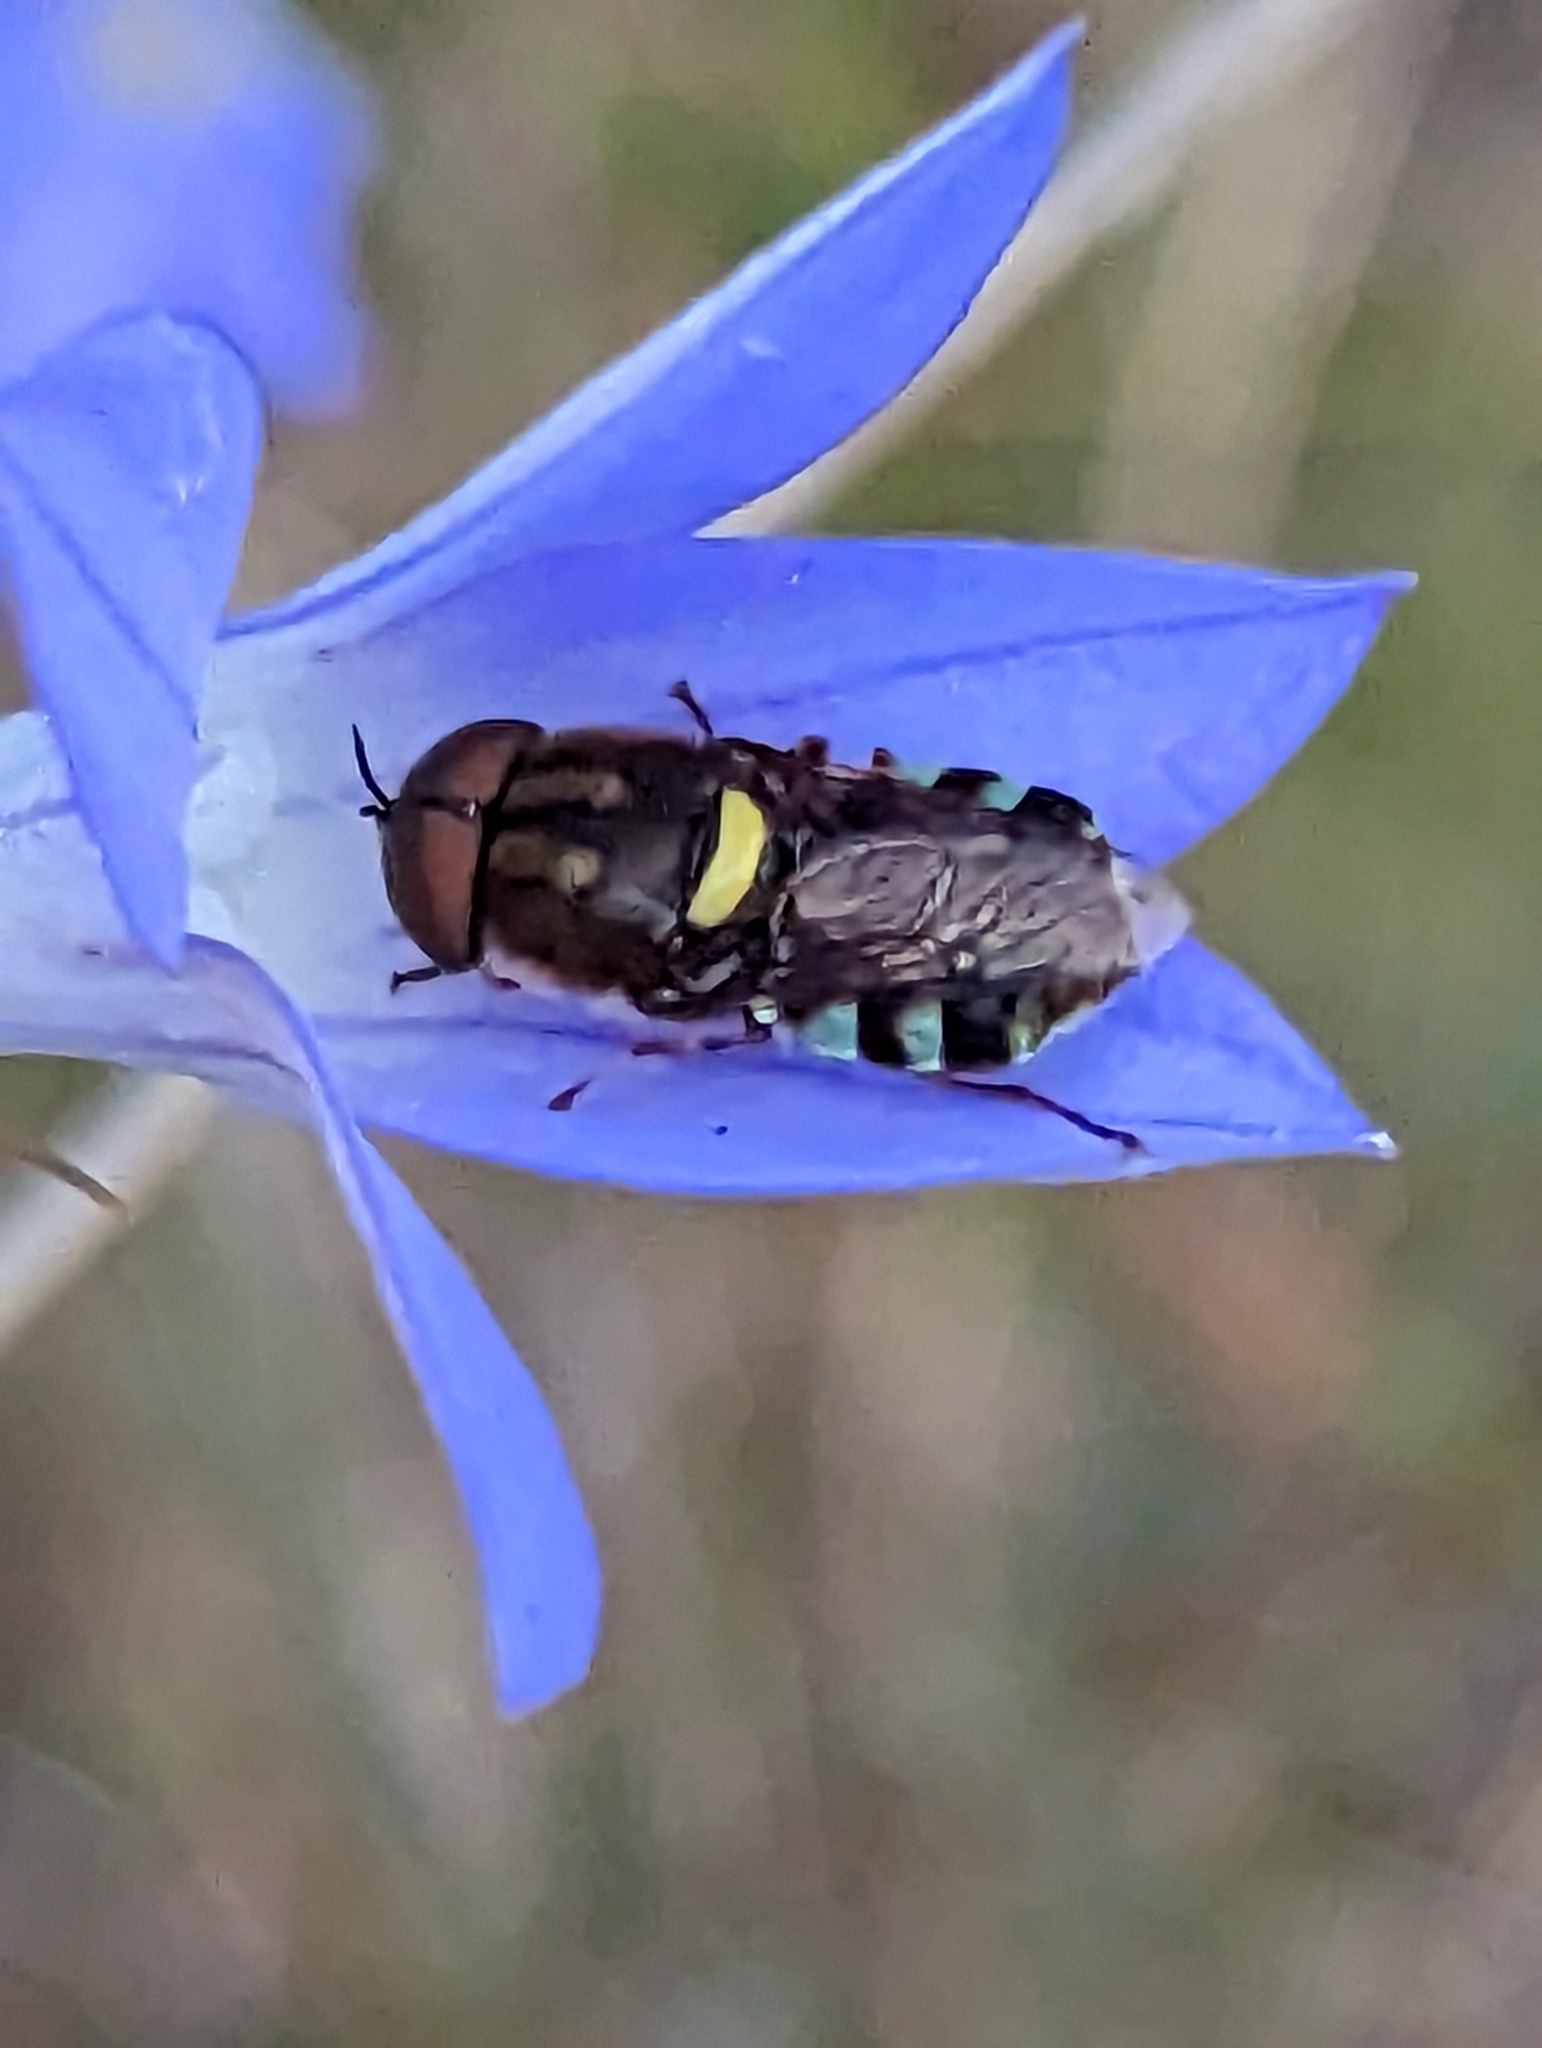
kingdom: Animalia
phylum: Arthropoda
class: Insecta
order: Diptera
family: Stratiomyidae
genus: Odontomyia
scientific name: Odontomyia hunteri
